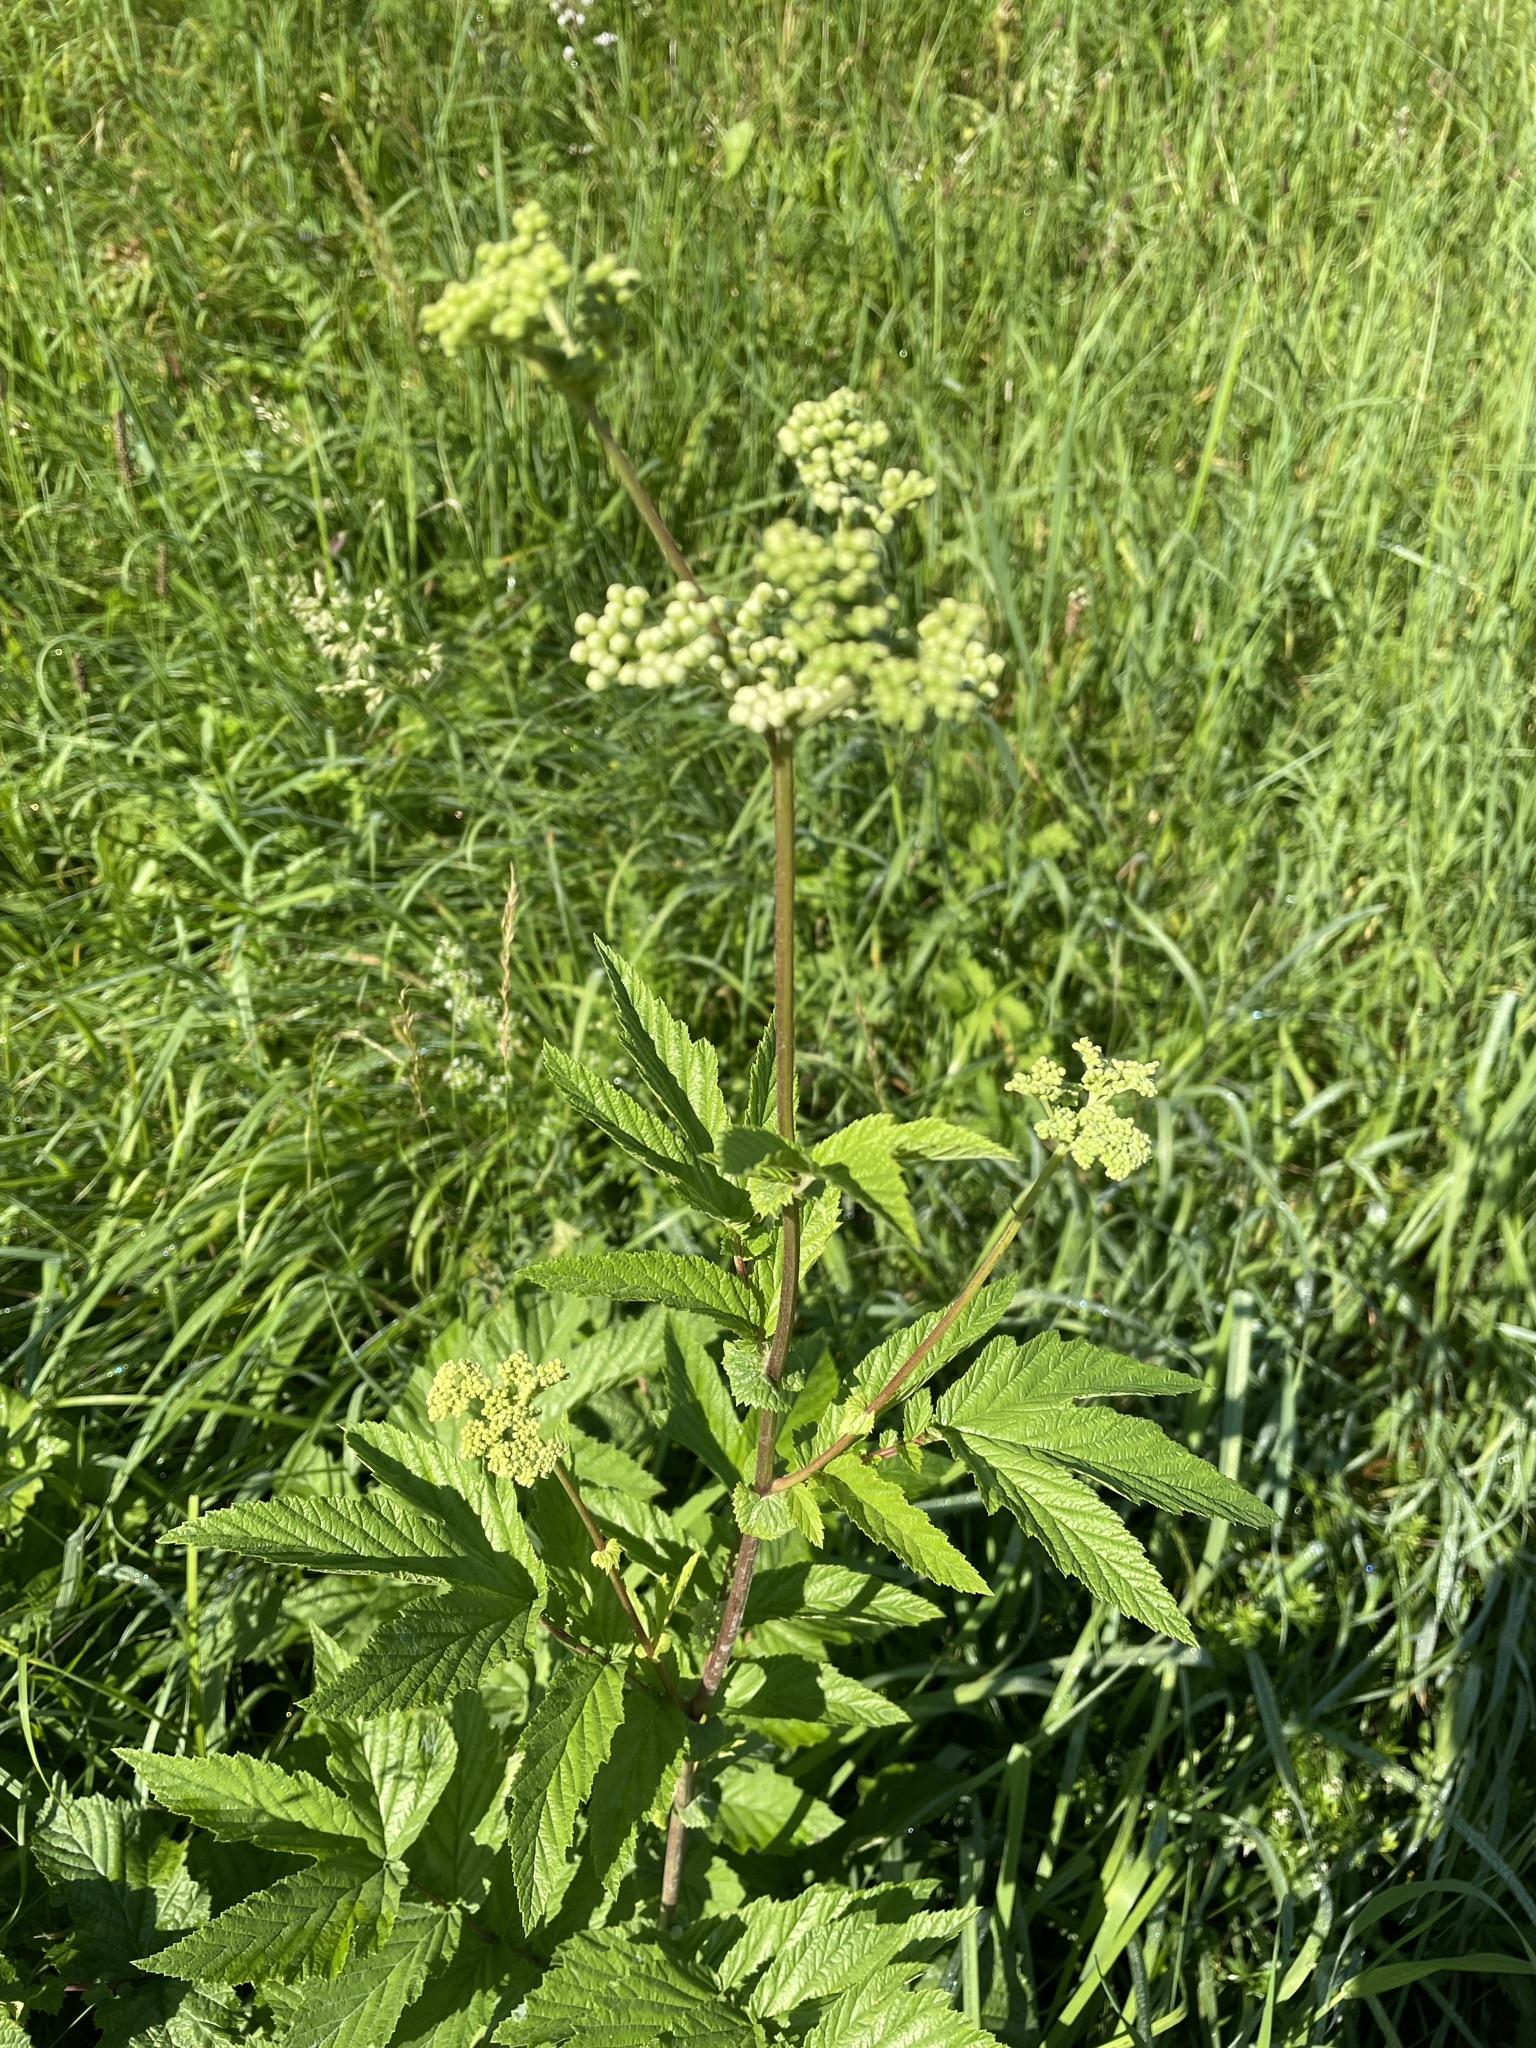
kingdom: Plantae
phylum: Tracheophyta
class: Magnoliopsida
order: Rosales
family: Rosaceae
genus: Filipendula
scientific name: Filipendula ulmaria
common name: Meadowsweet
